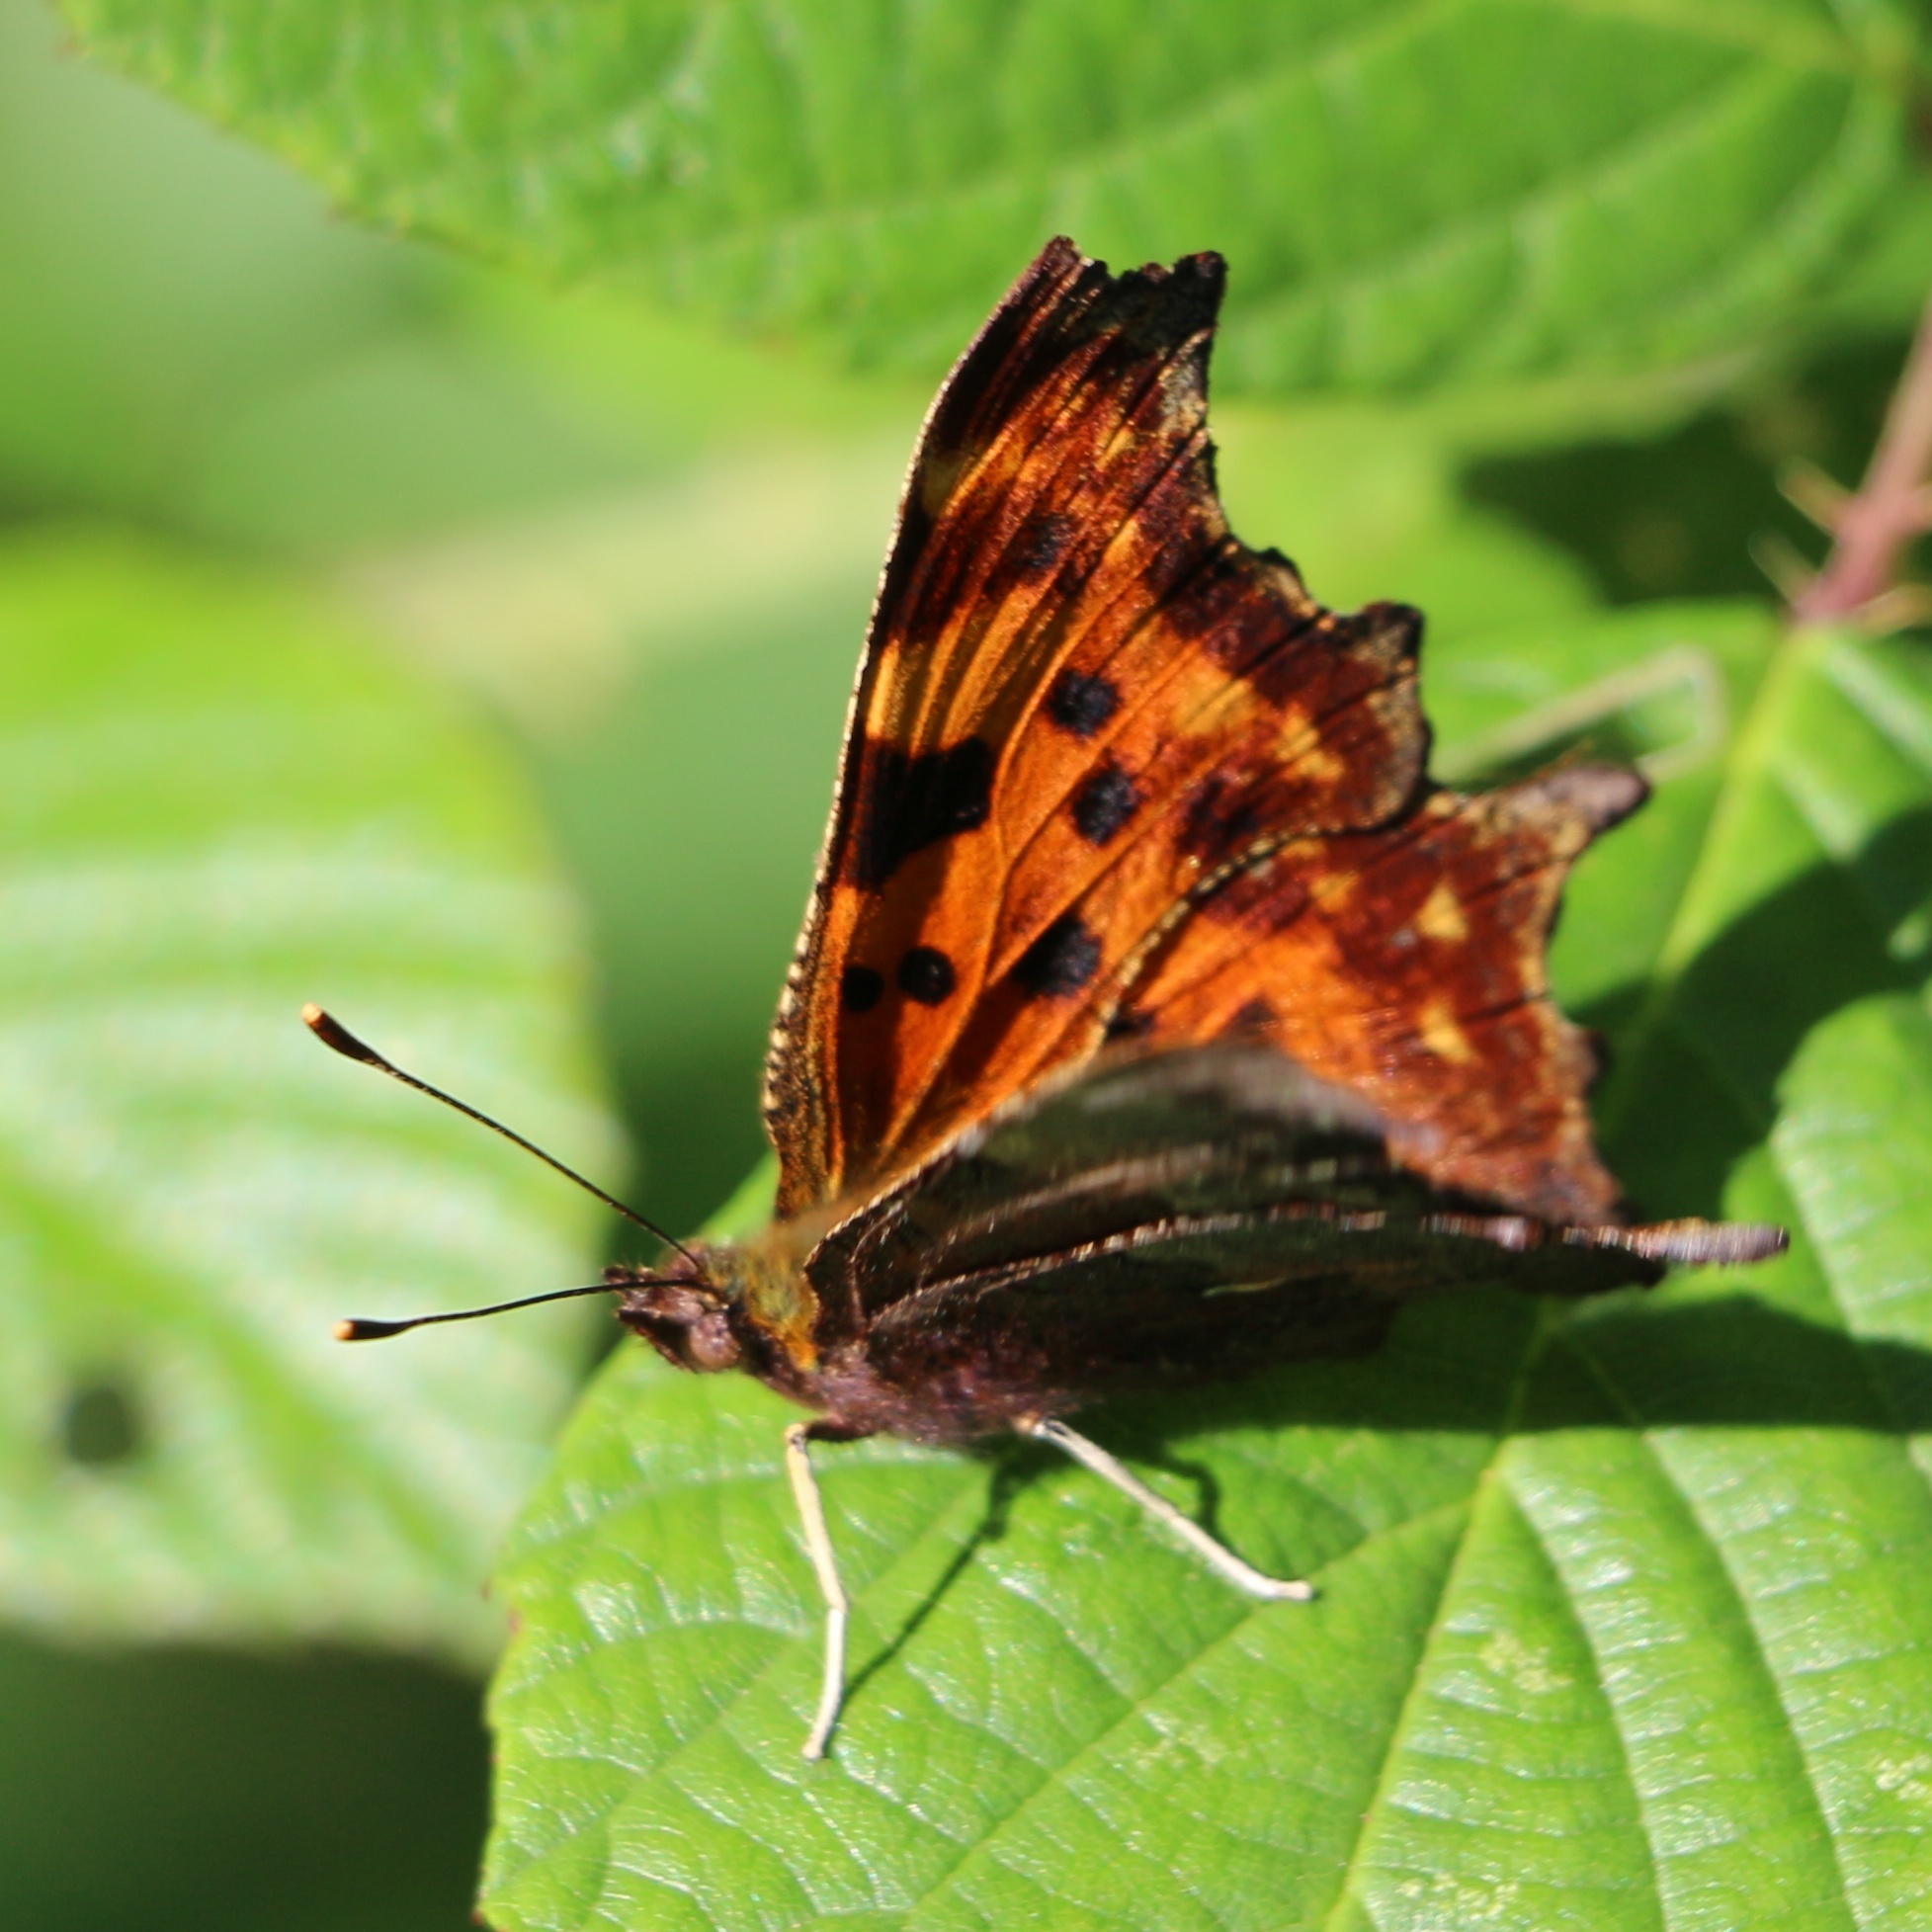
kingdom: Animalia
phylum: Arthropoda
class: Insecta
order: Lepidoptera
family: Nymphalidae
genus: Polygonia
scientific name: Polygonia c-album
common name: Comma
